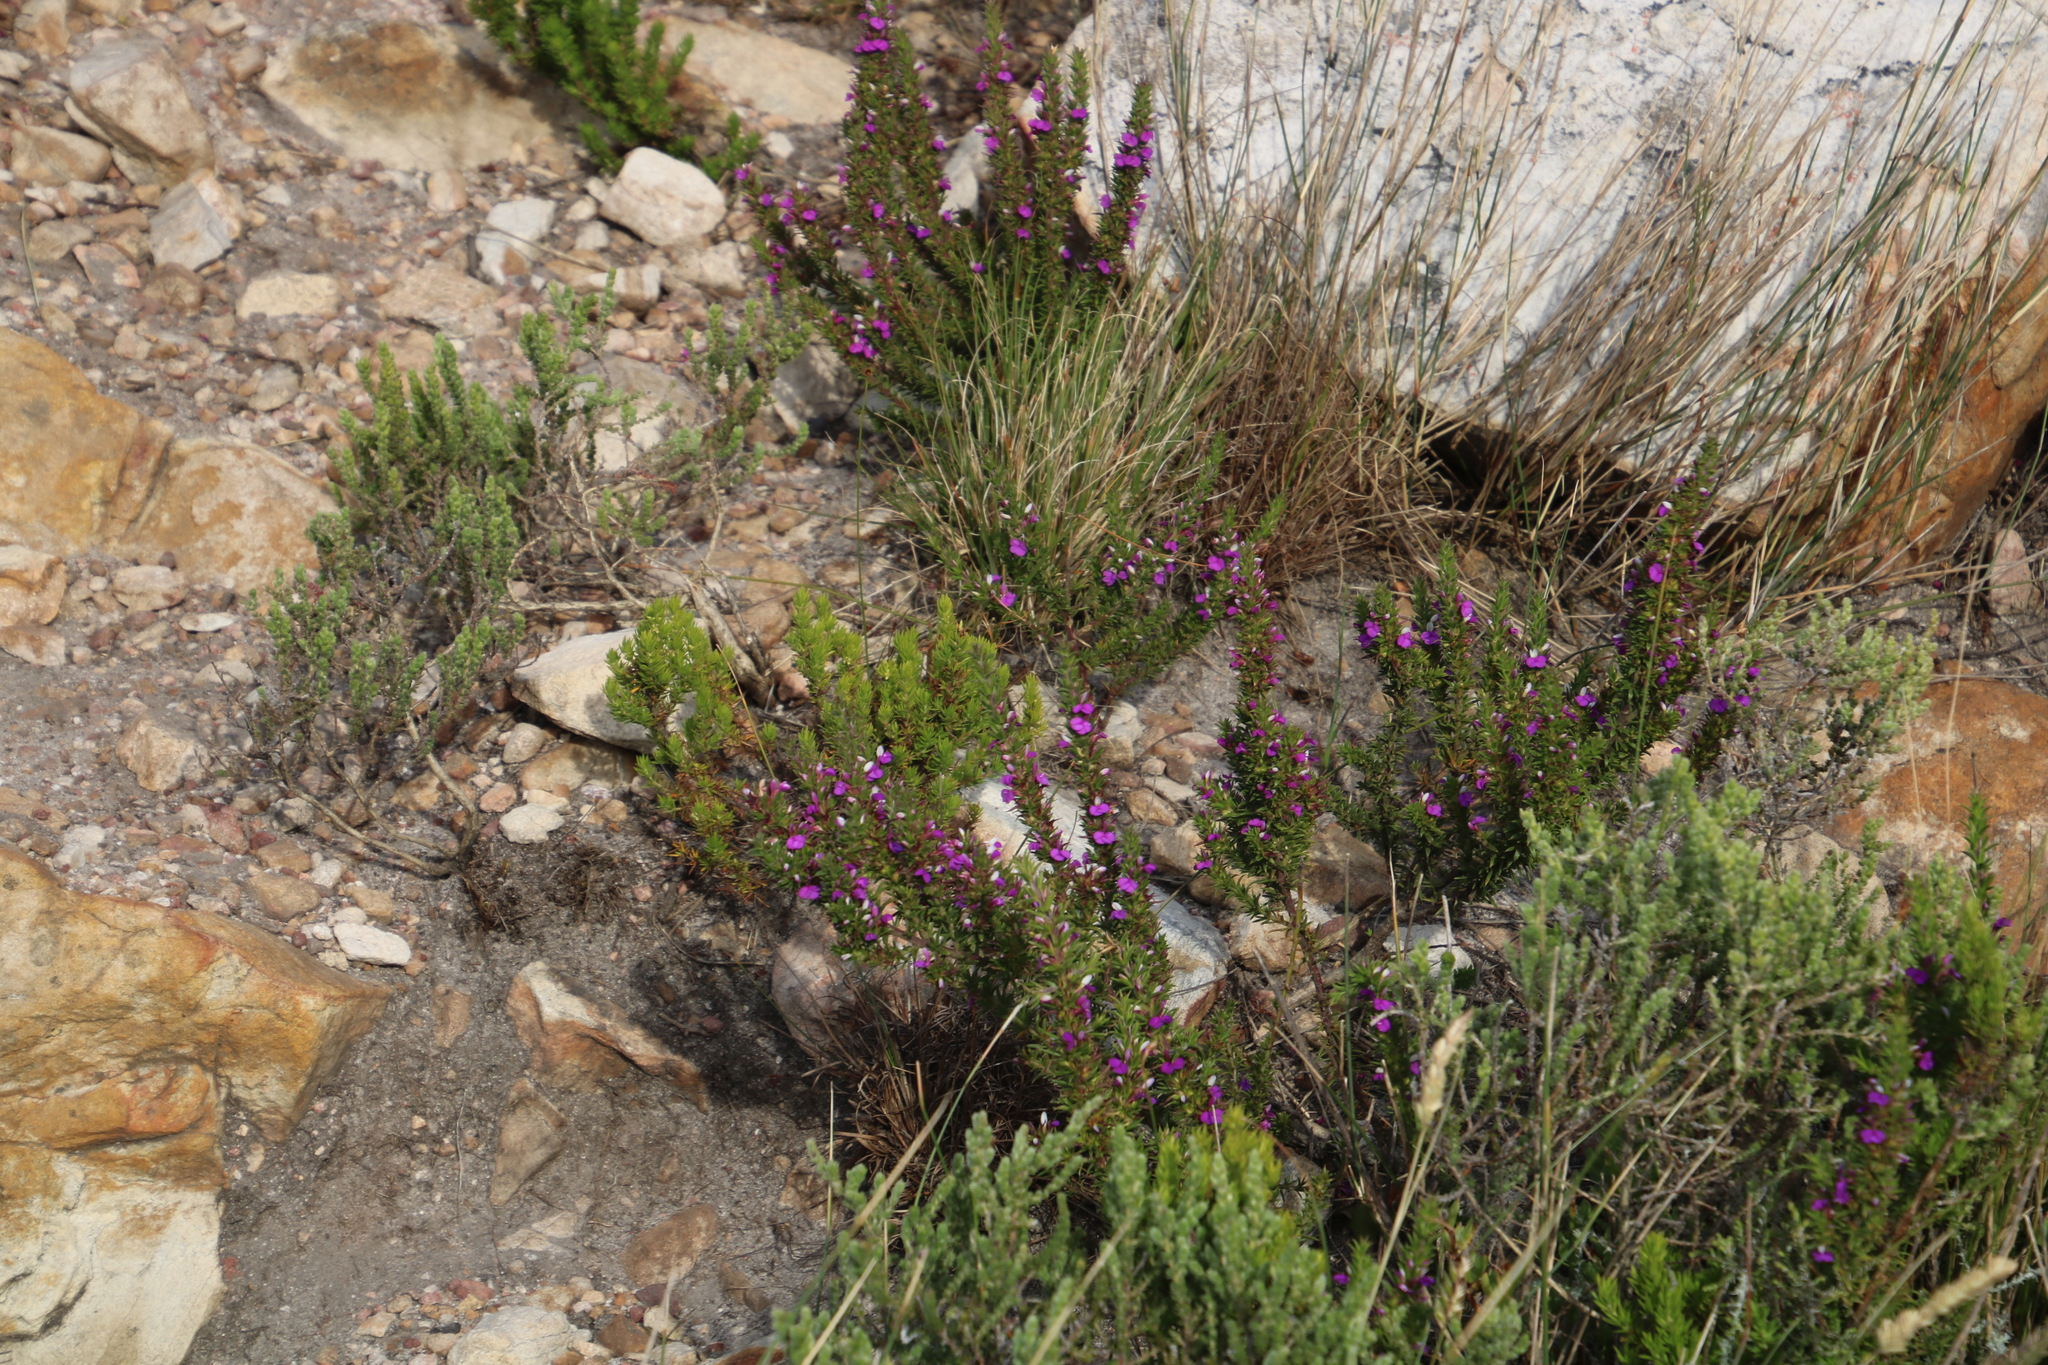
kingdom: Plantae
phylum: Tracheophyta
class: Magnoliopsida
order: Fabales
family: Polygalaceae
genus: Muraltia
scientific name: Muraltia heisteria
